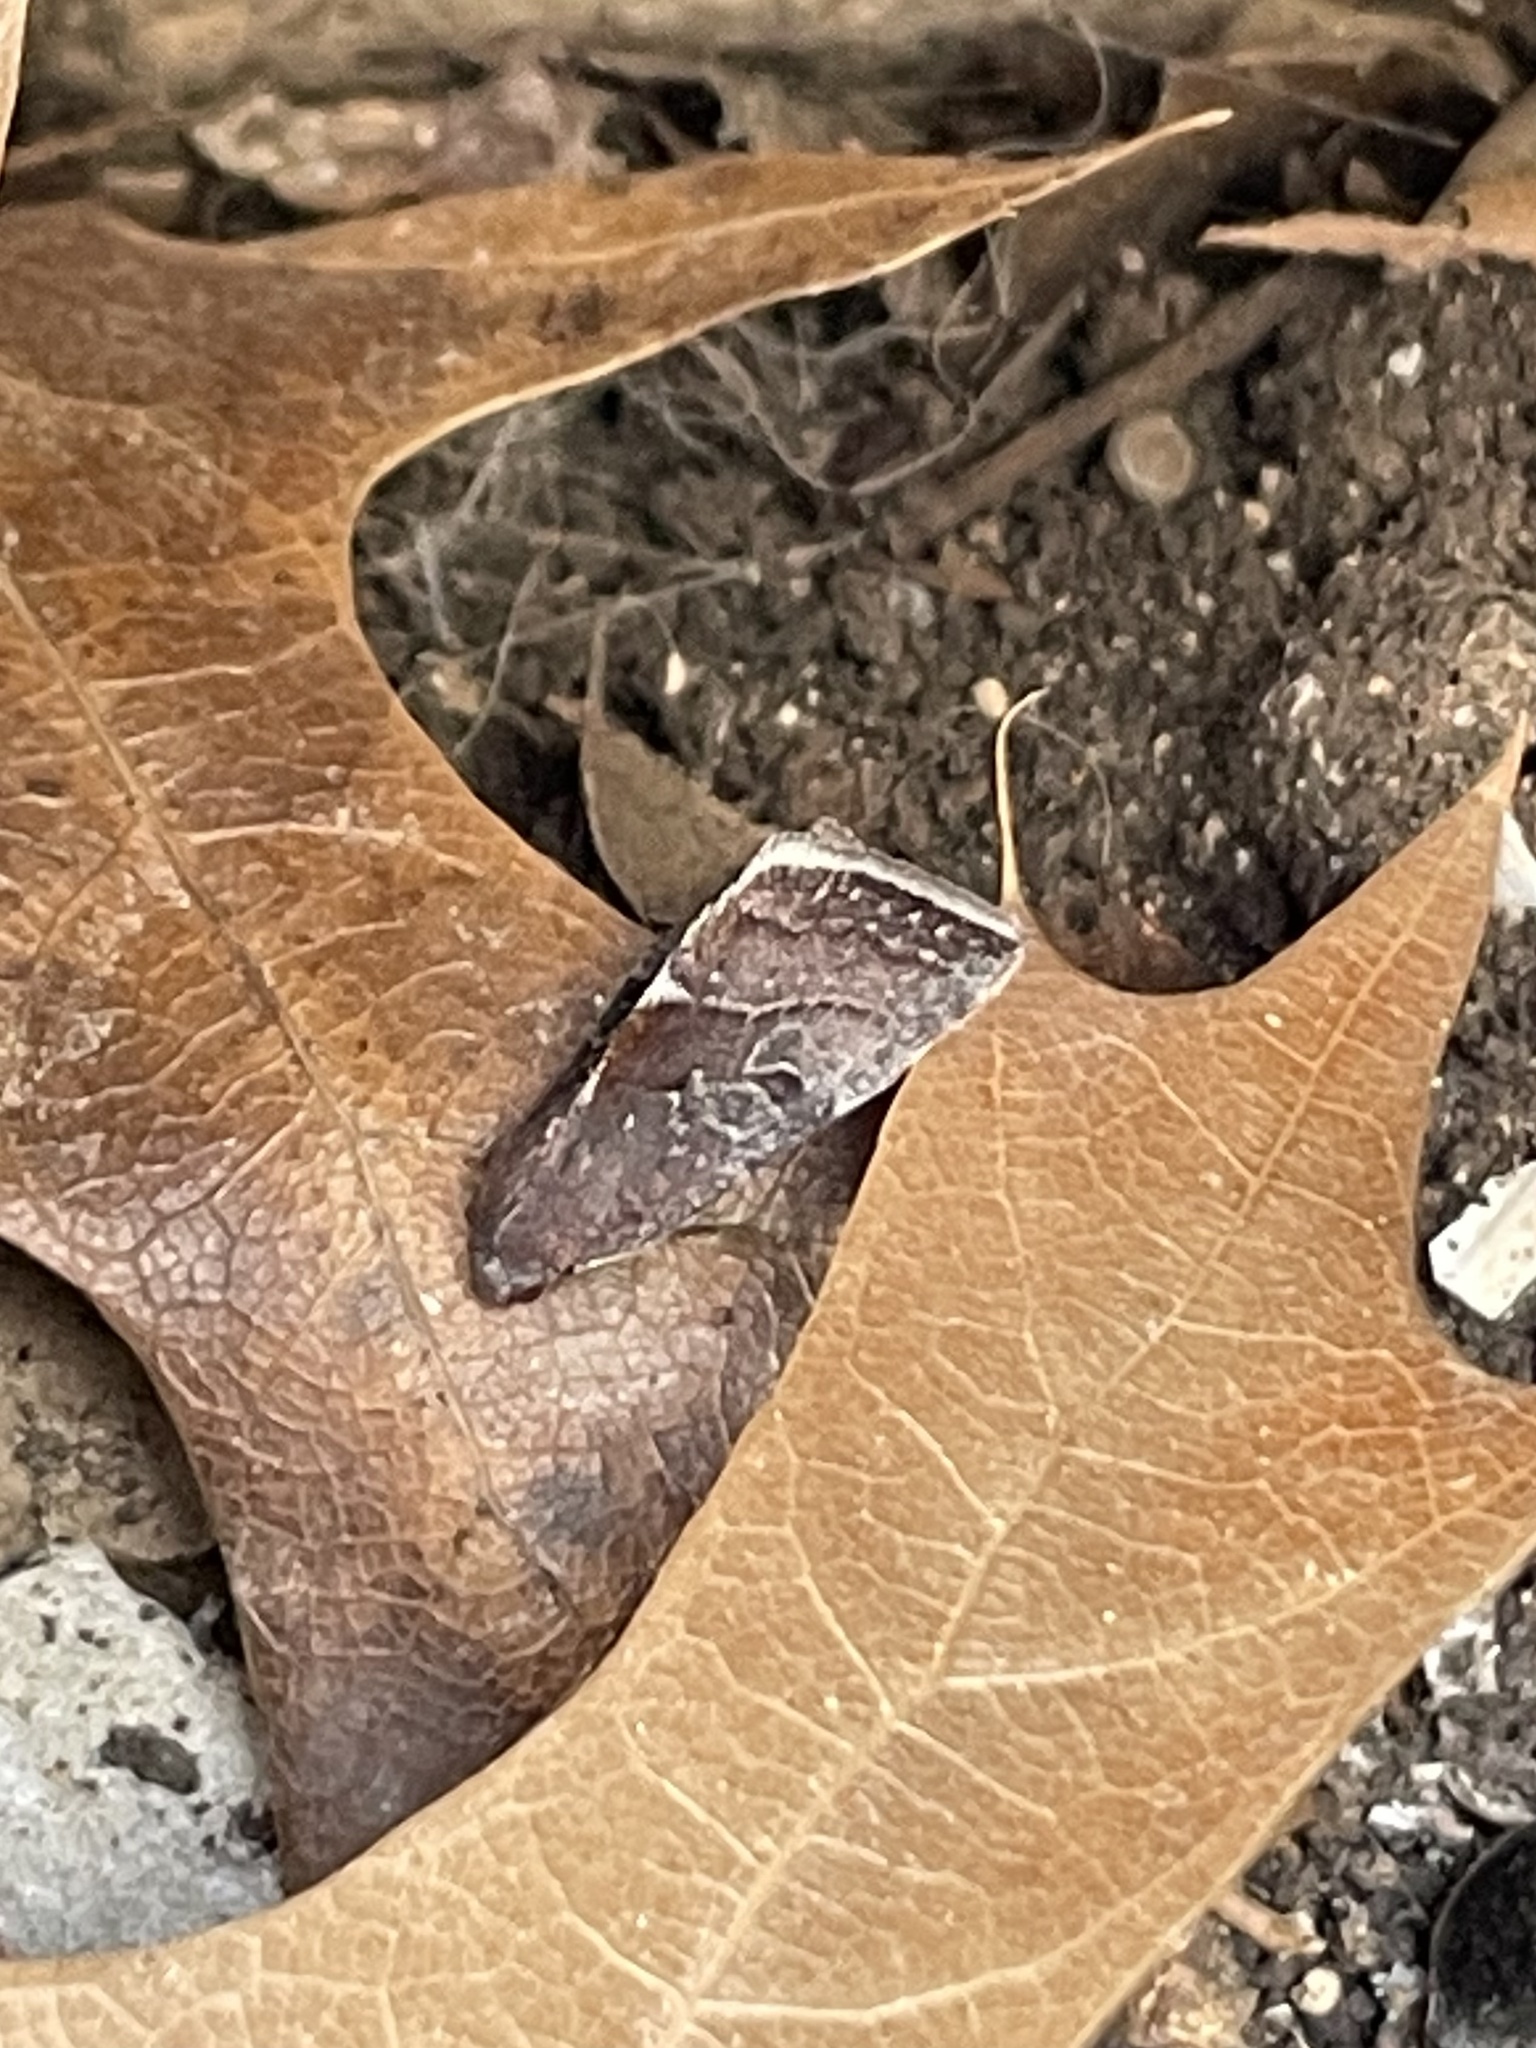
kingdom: Animalia
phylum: Arthropoda
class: Insecta
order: Lepidoptera
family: Noctuidae
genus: Galgula
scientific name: Galgula partita
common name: Wedgeling
